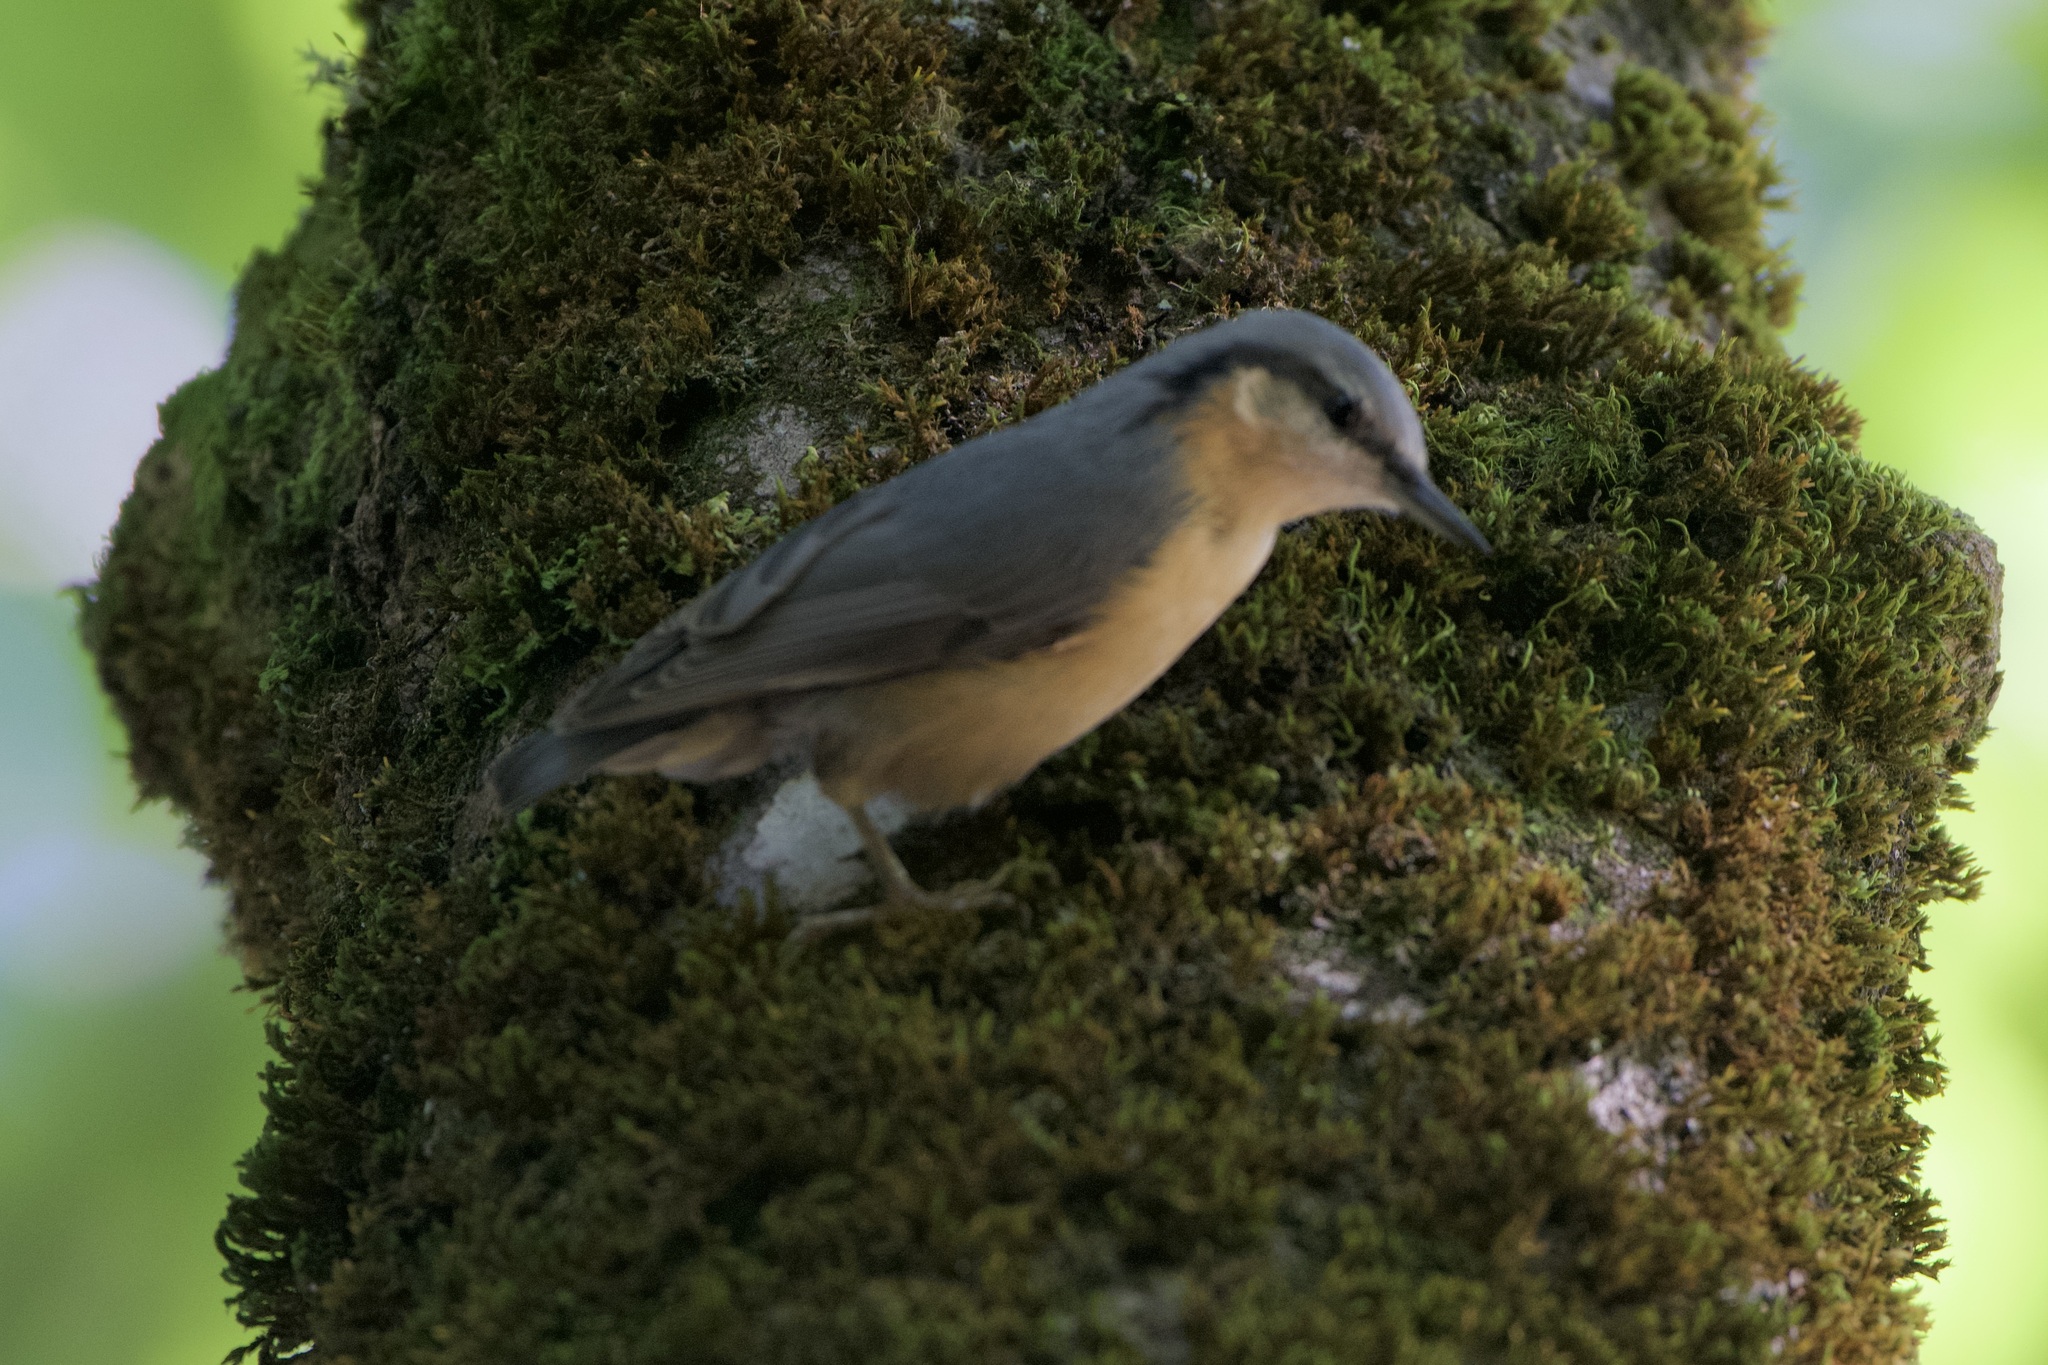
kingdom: Animalia
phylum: Chordata
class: Aves
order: Passeriformes
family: Sittidae
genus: Sitta
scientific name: Sitta europaea
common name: Eurasian nuthatch
